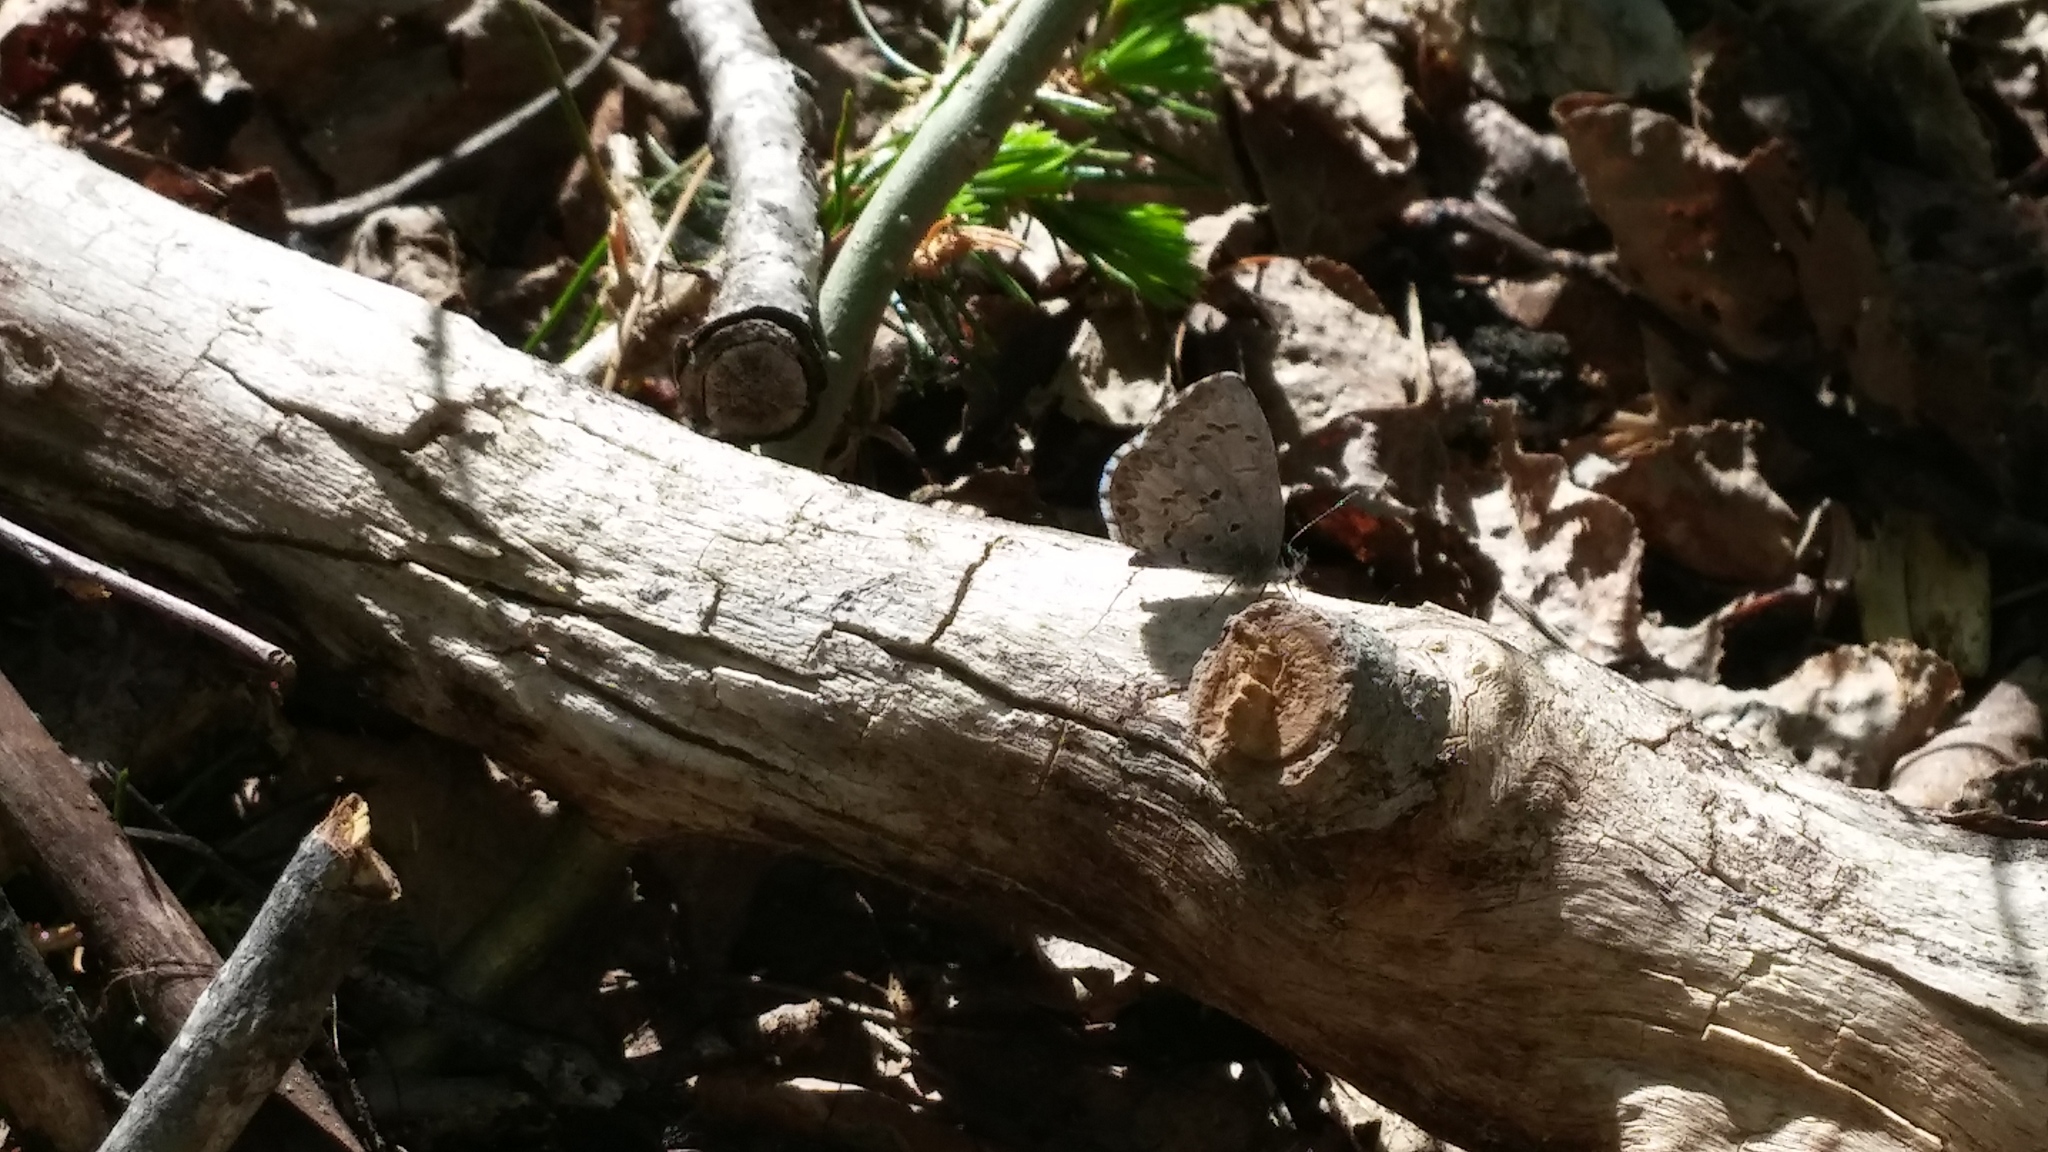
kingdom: Animalia
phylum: Arthropoda
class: Insecta
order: Lepidoptera
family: Lycaenidae
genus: Celastrina
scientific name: Celastrina lucia
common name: Lucia azure
